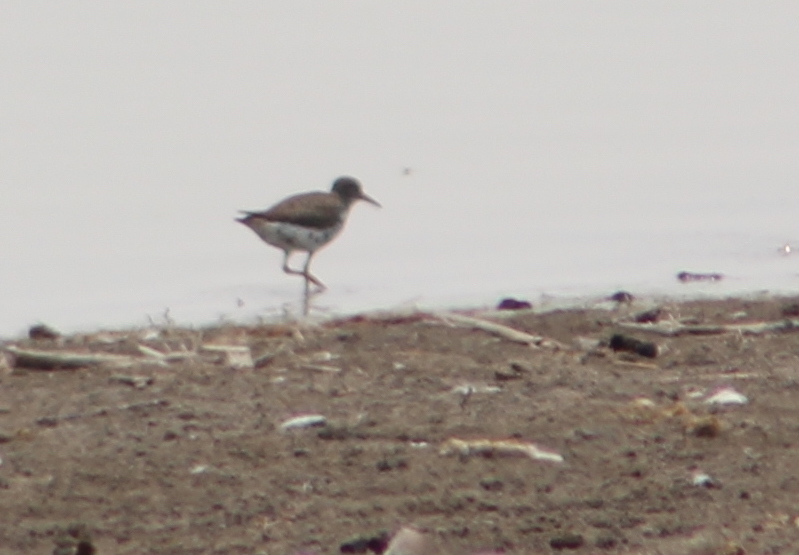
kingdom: Animalia
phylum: Chordata
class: Aves
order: Charadriiformes
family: Scolopacidae
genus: Actitis
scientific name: Actitis macularius
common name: Spotted sandpiper
